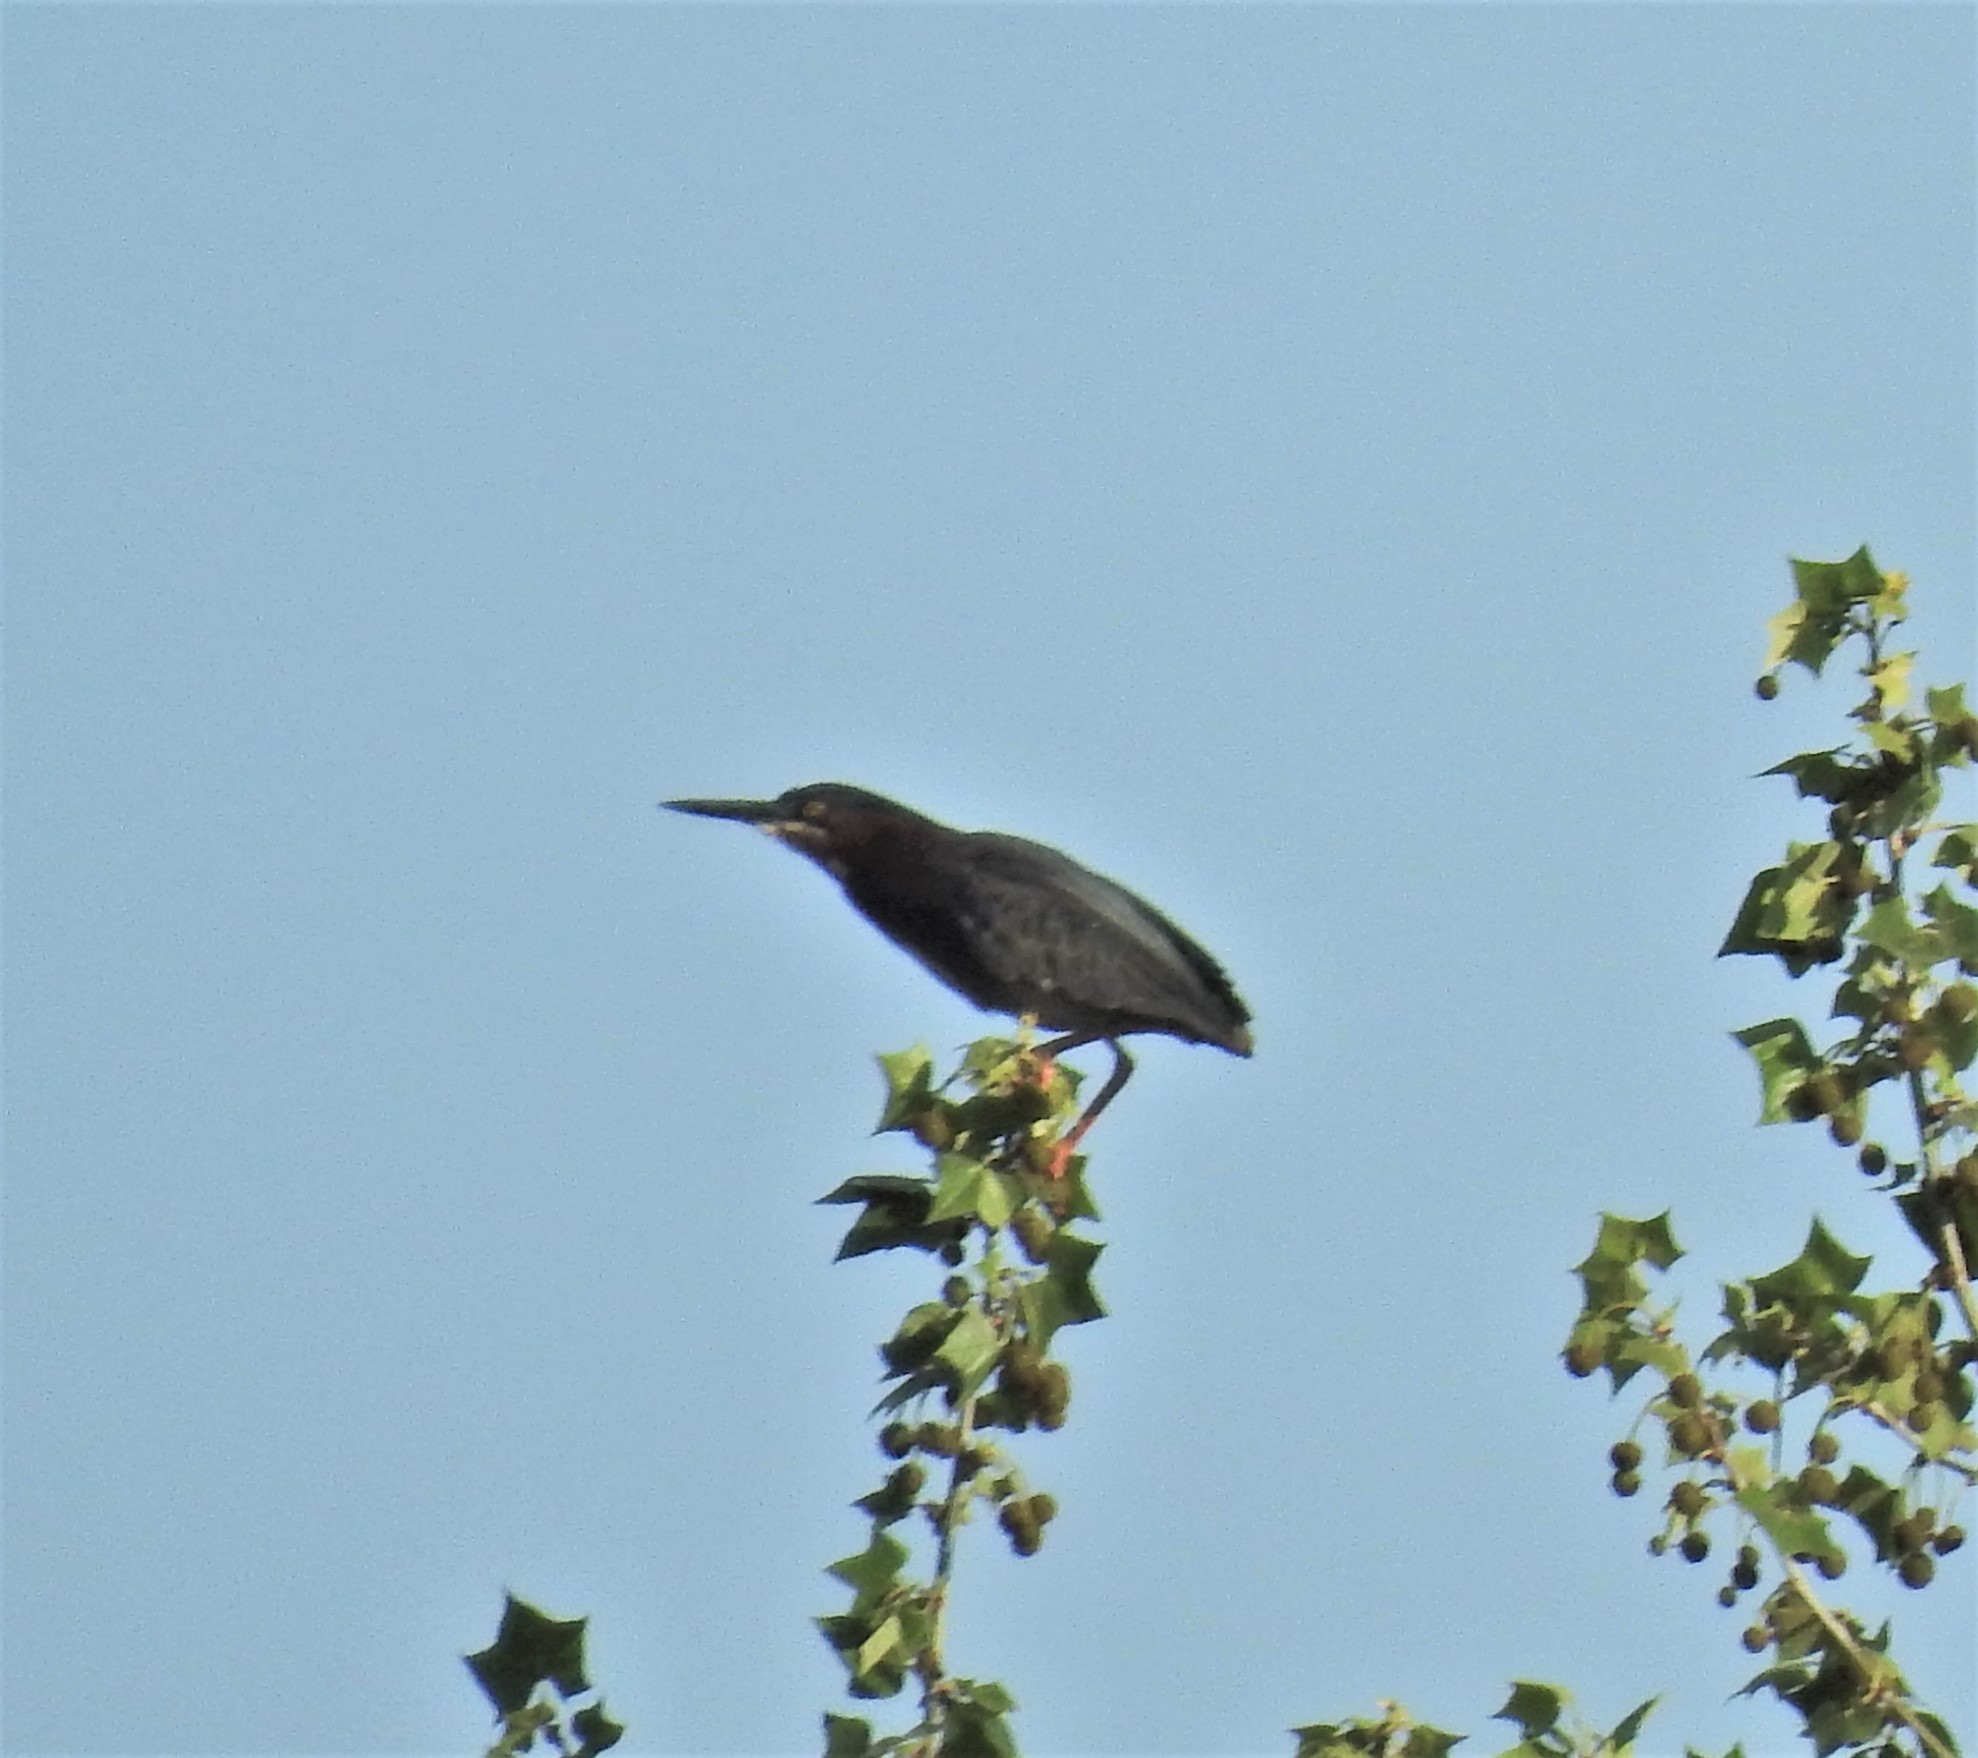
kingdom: Animalia
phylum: Chordata
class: Aves
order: Pelecaniformes
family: Ardeidae
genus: Butorides
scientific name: Butorides virescens
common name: Green heron
